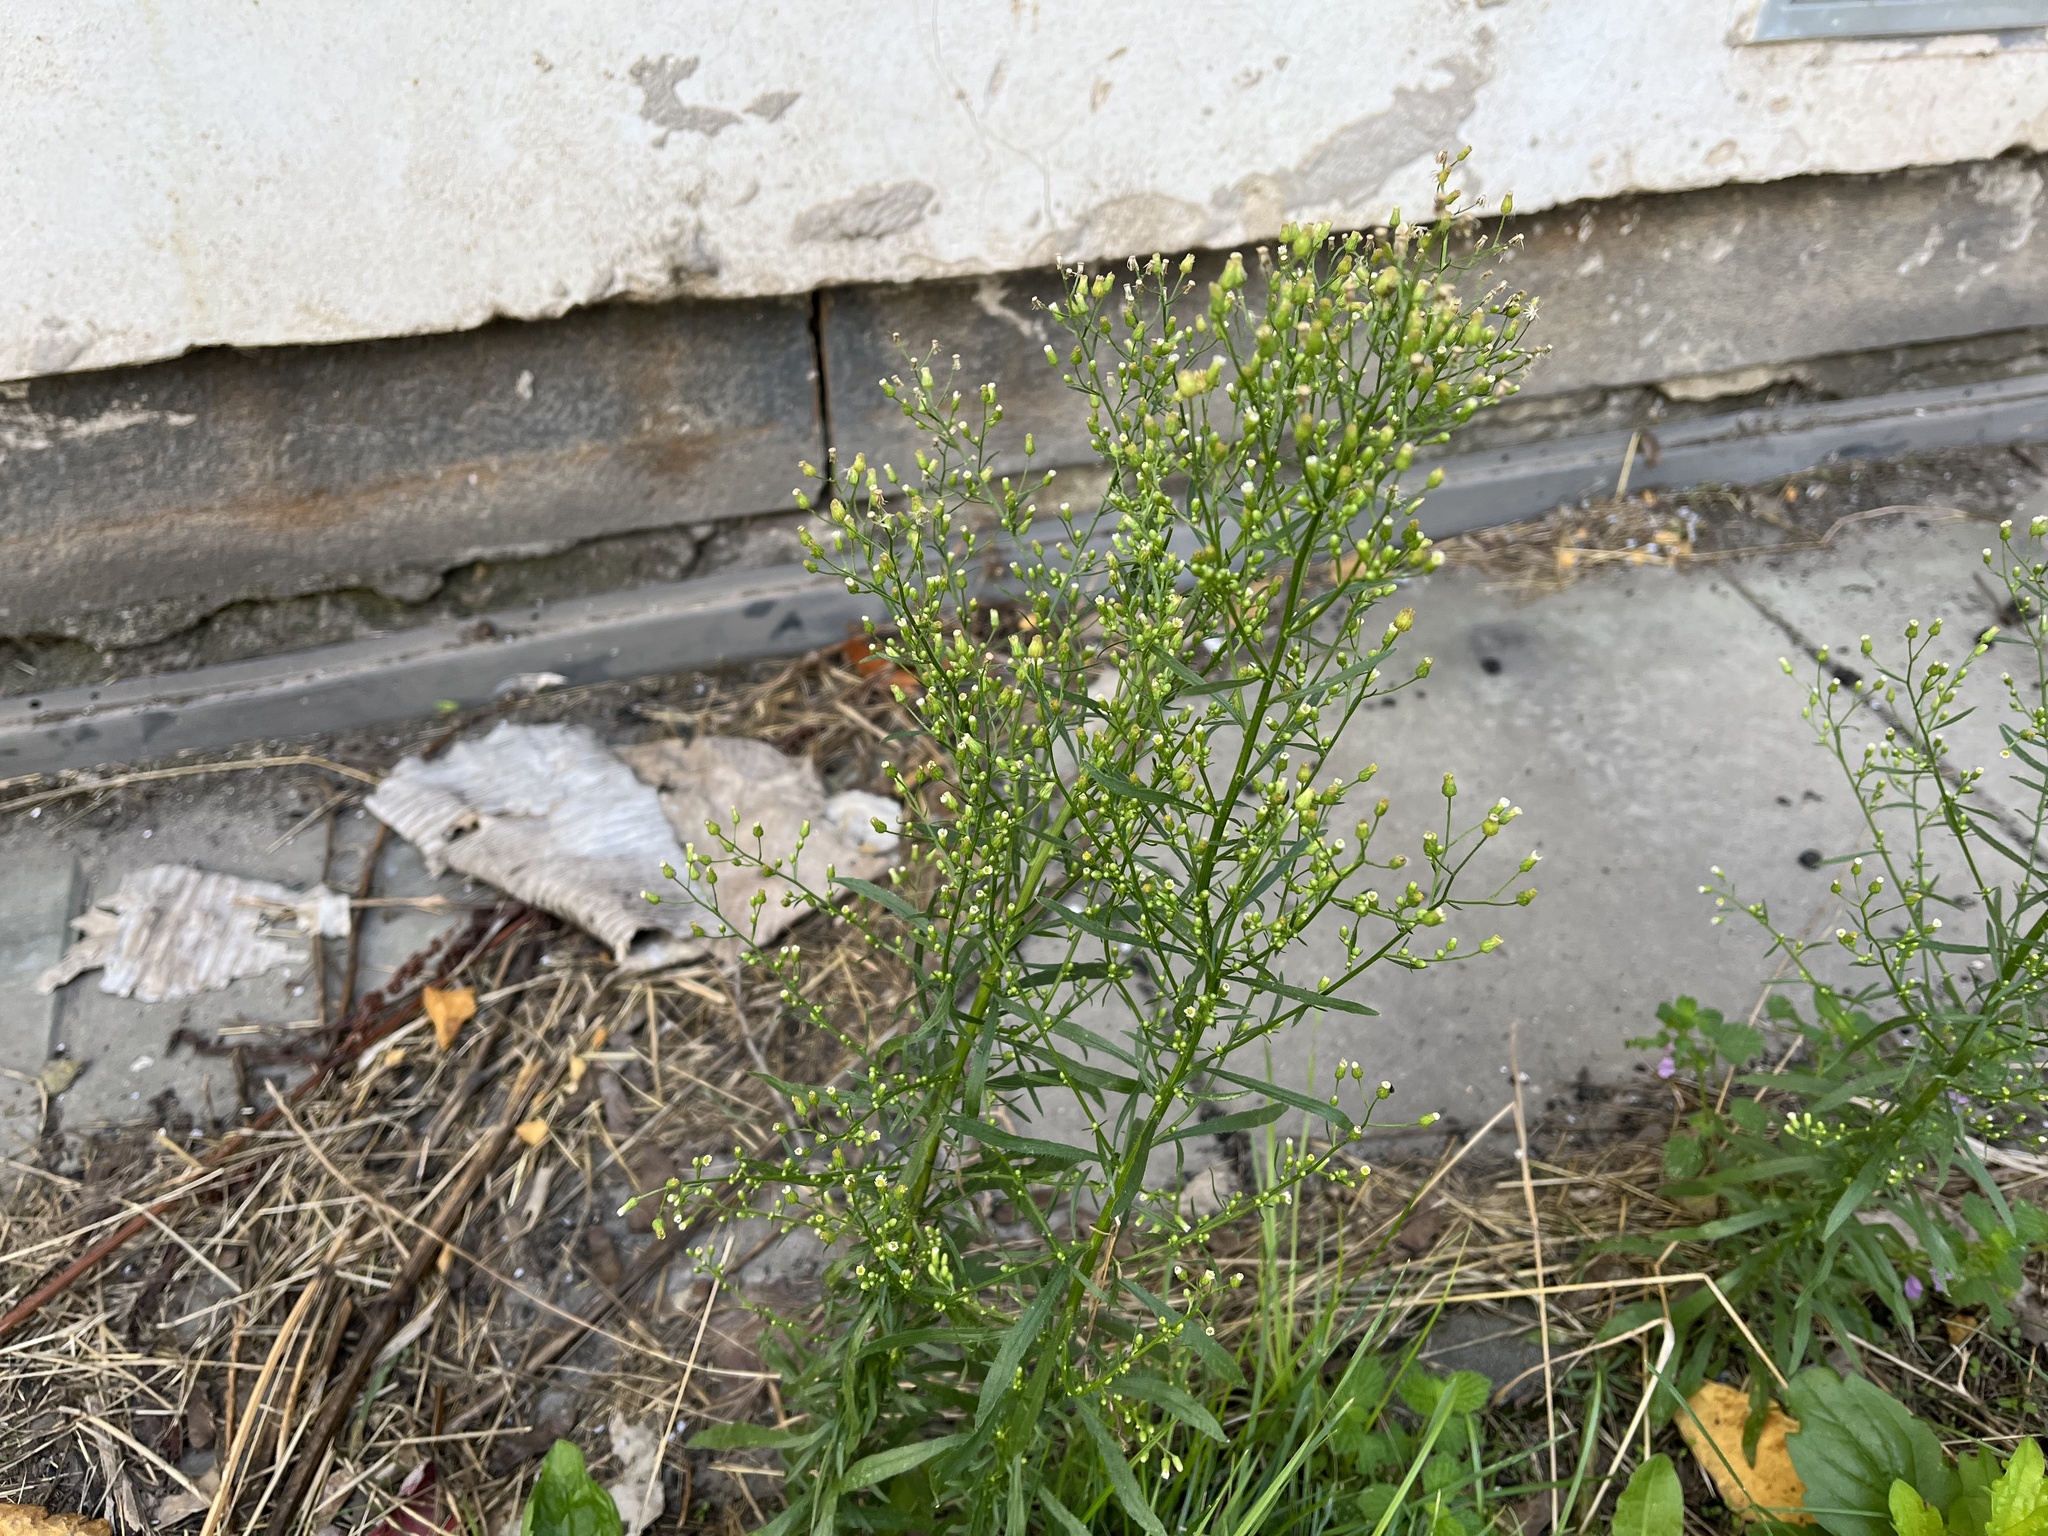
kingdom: Plantae
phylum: Tracheophyta
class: Magnoliopsida
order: Asterales
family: Asteraceae
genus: Erigeron
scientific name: Erigeron canadensis
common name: Canadian fleabane
